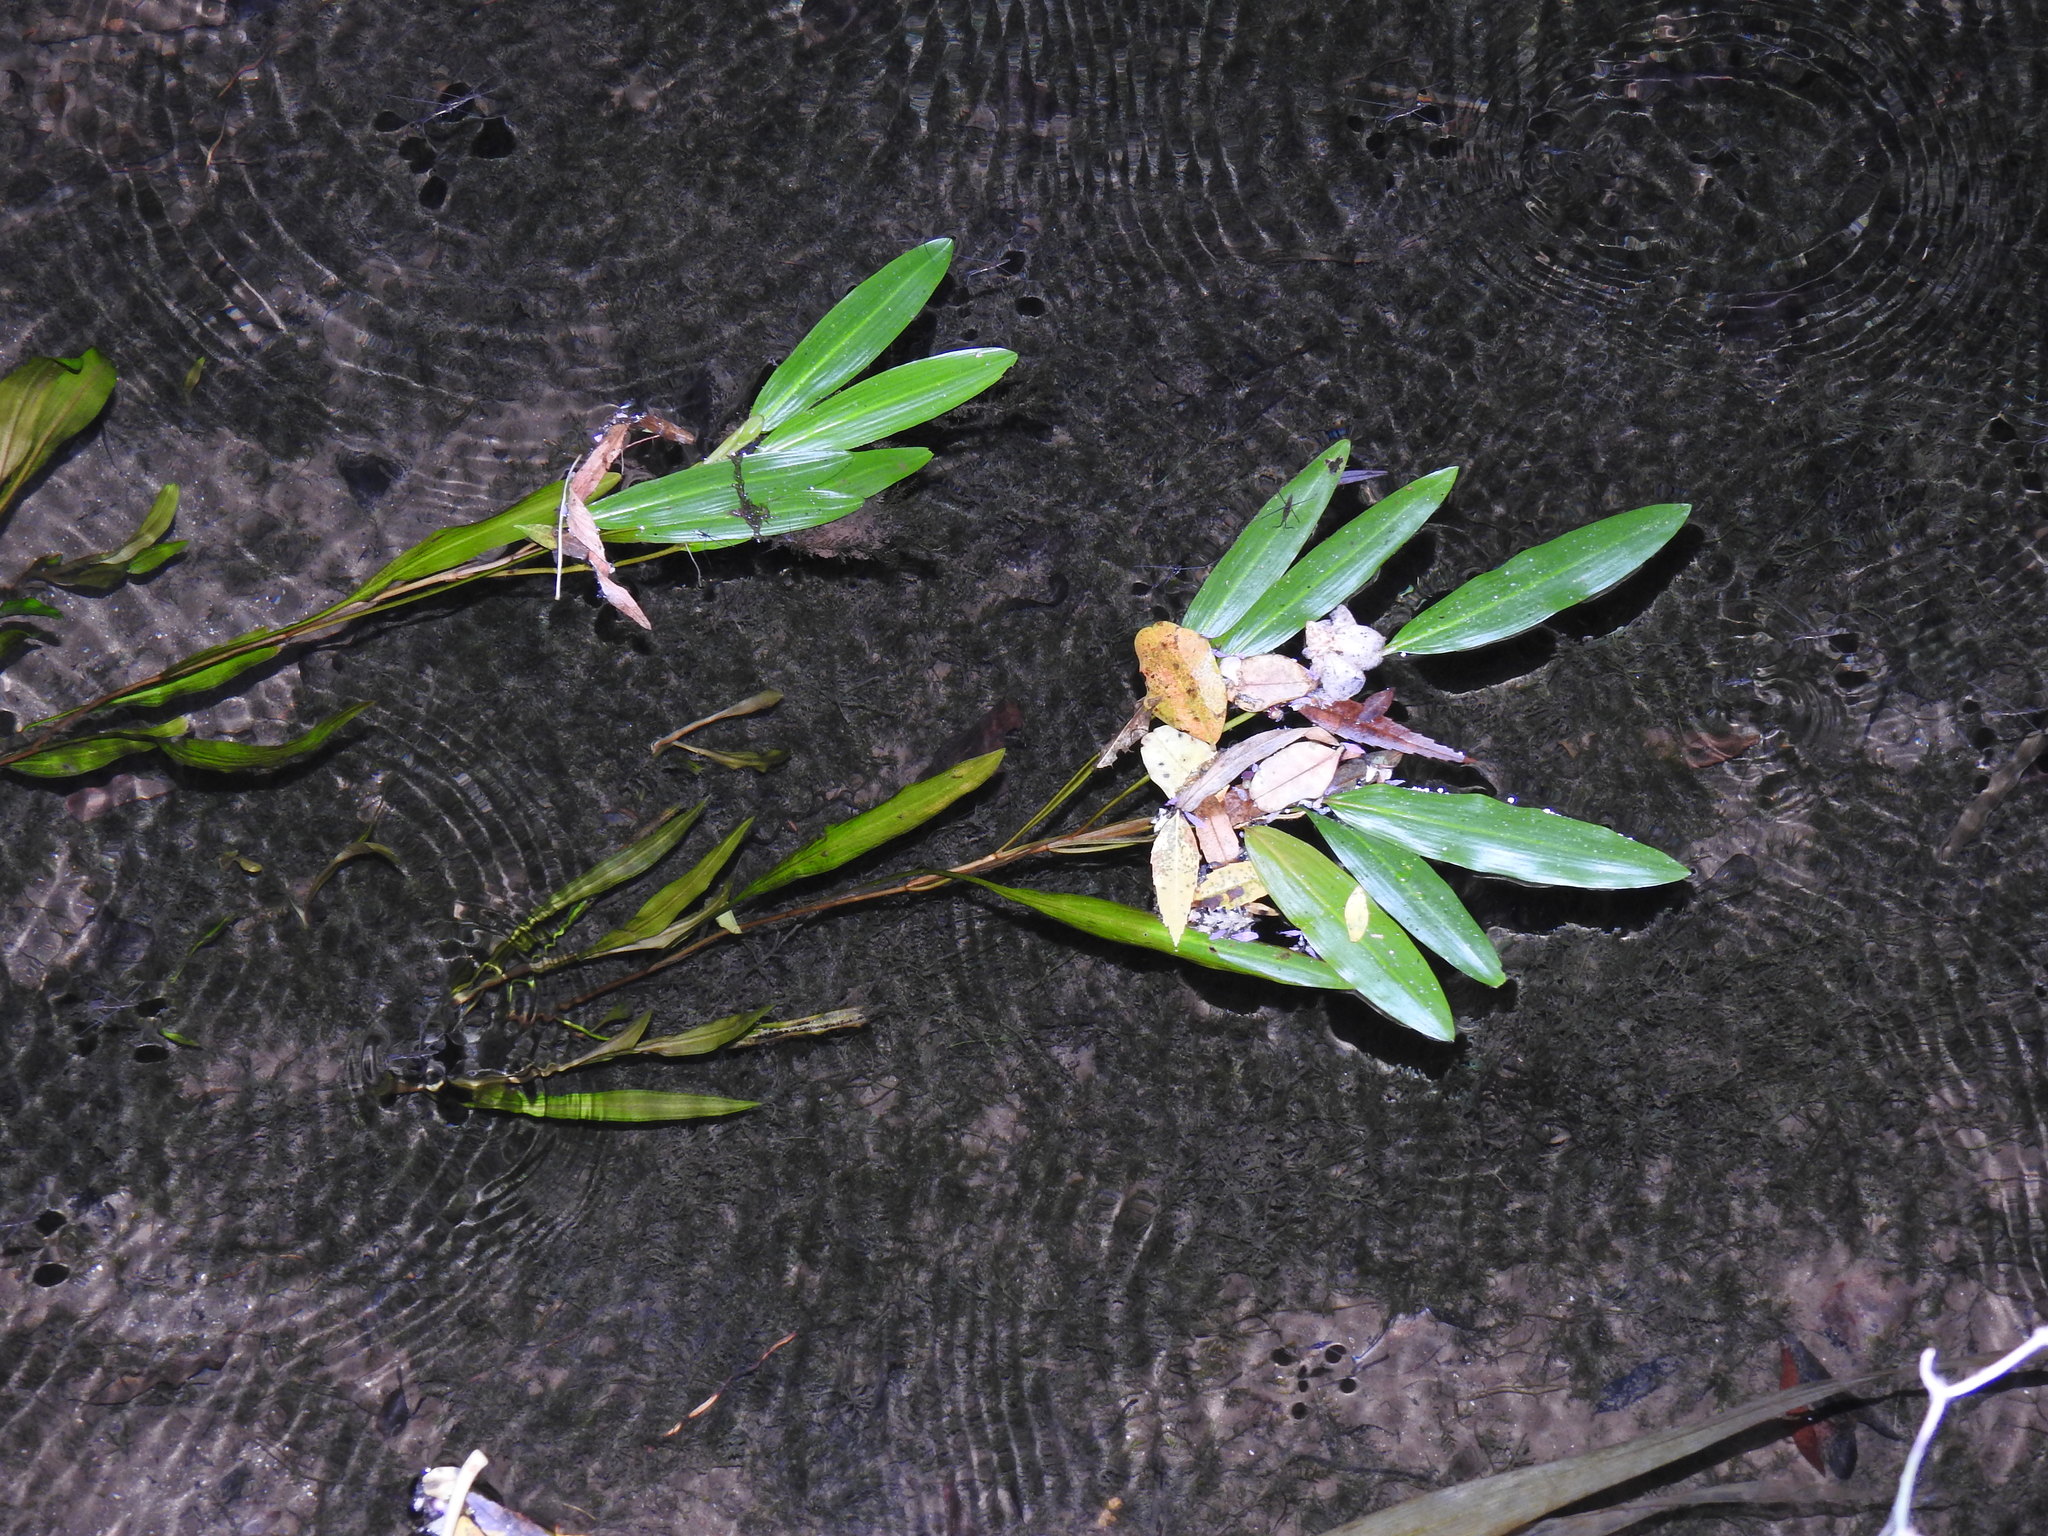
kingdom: Plantae
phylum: Tracheophyta
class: Liliopsida
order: Alismatales
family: Potamogetonaceae
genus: Potamogeton
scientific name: Potamogeton nodosus
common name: Loddon pondweed
